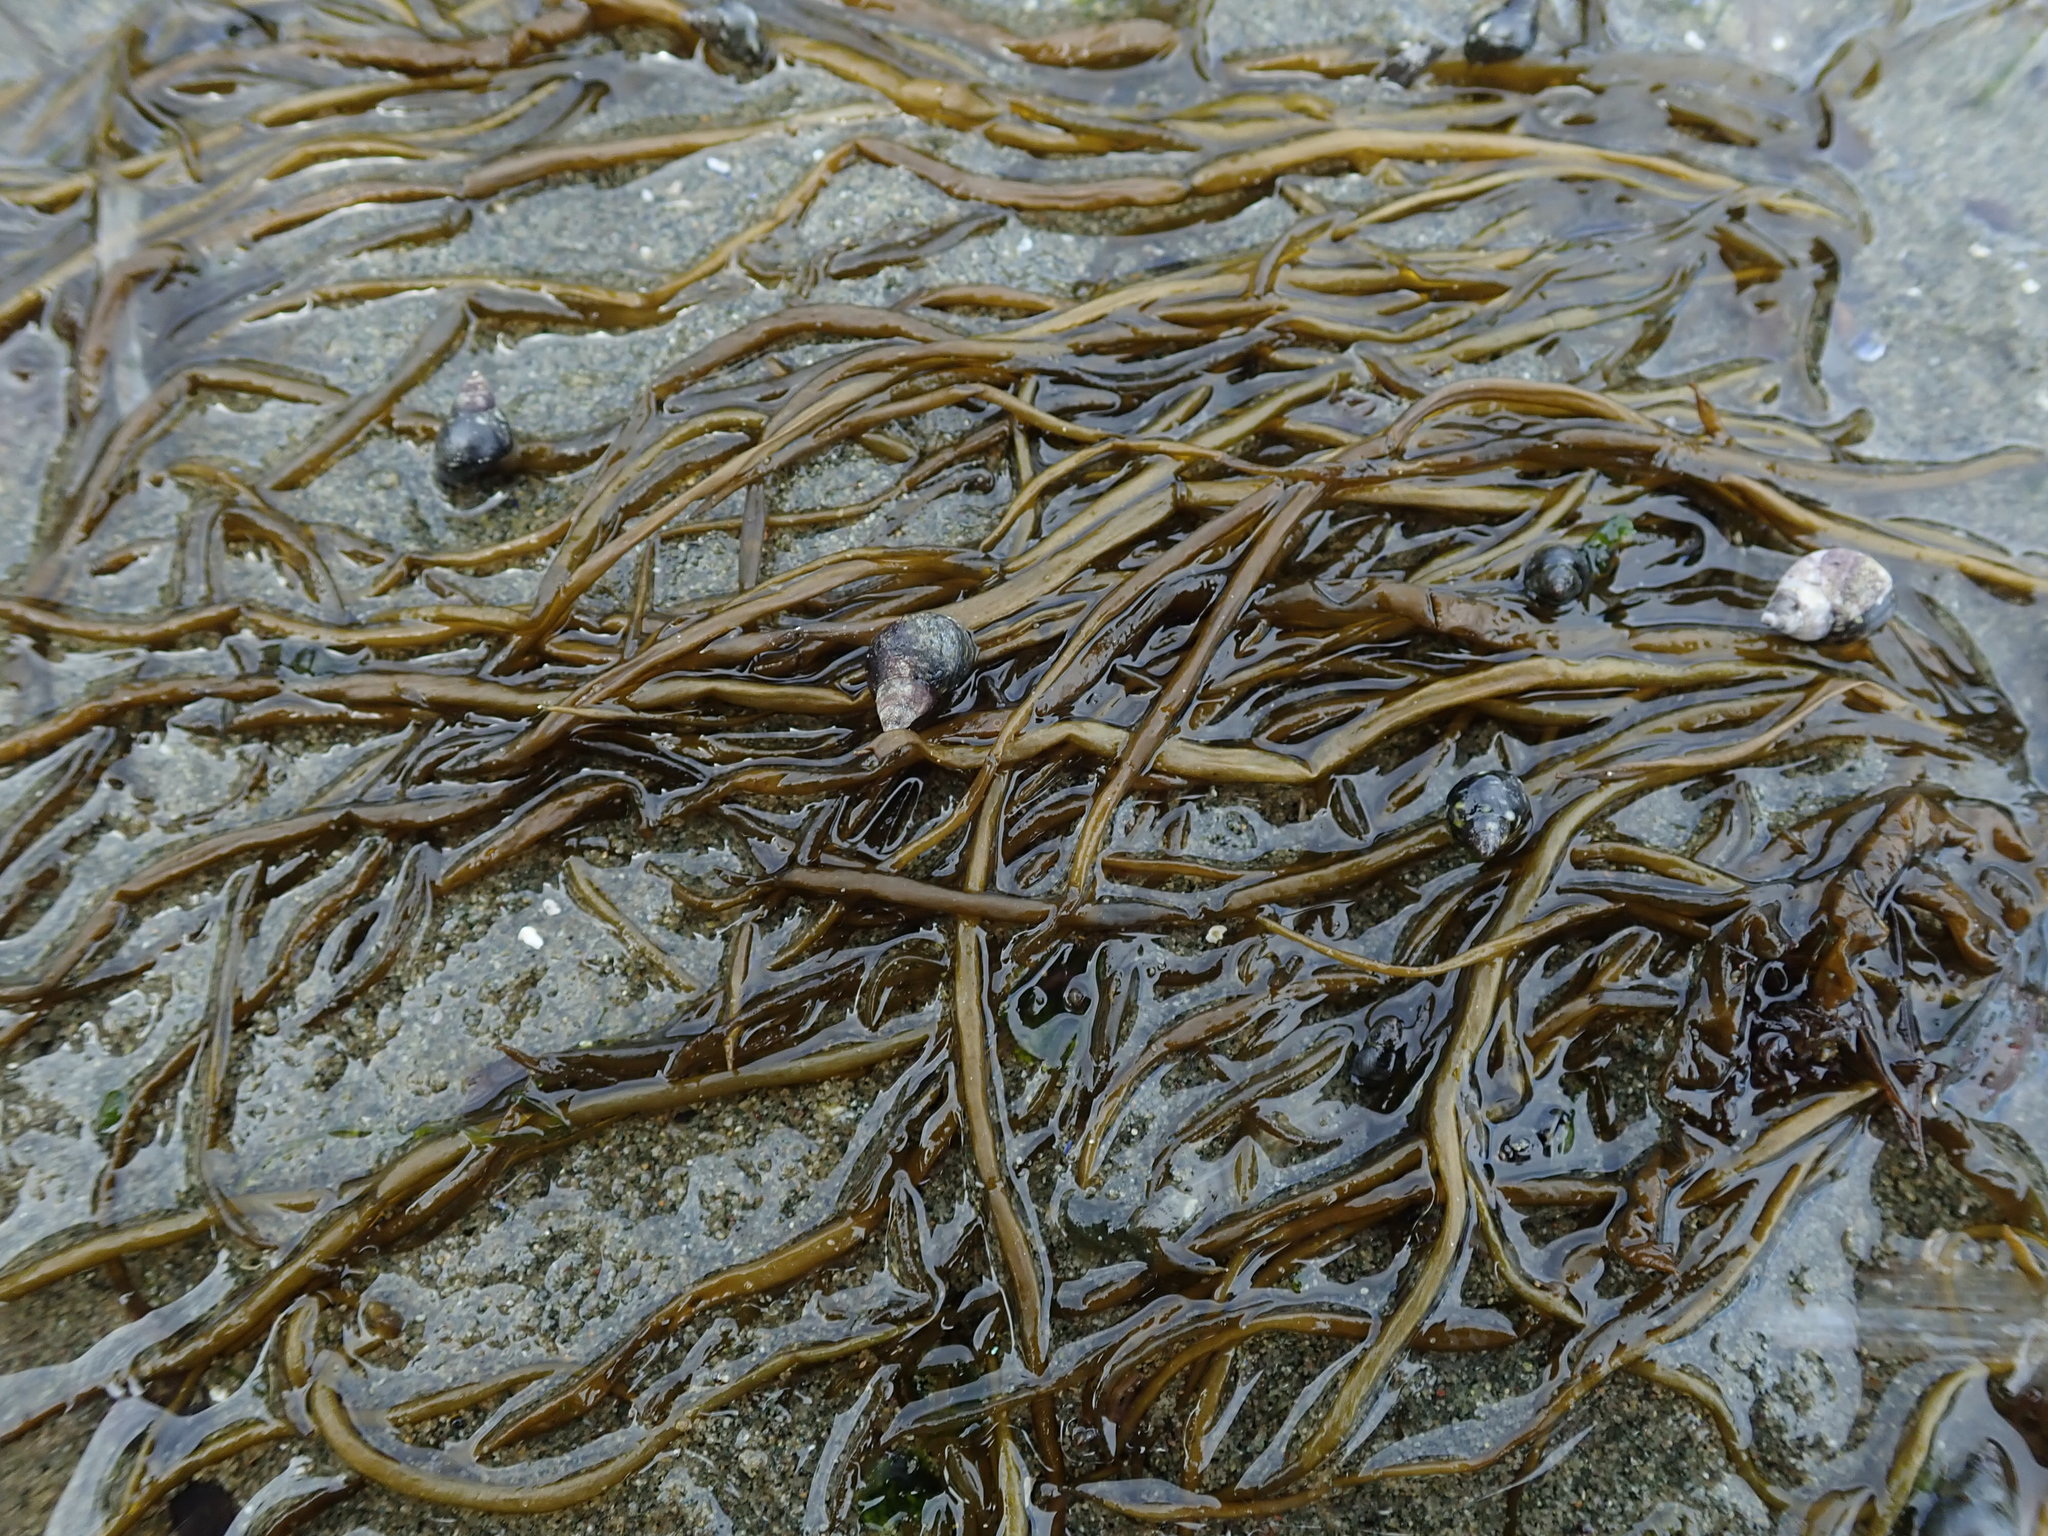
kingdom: Chromista
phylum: Ochrophyta
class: Phaeophyceae
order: Scytosiphonales
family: Scytosiphonaceae
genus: Scytosiphon
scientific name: Scytosiphon lomentaria
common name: Beanweed
